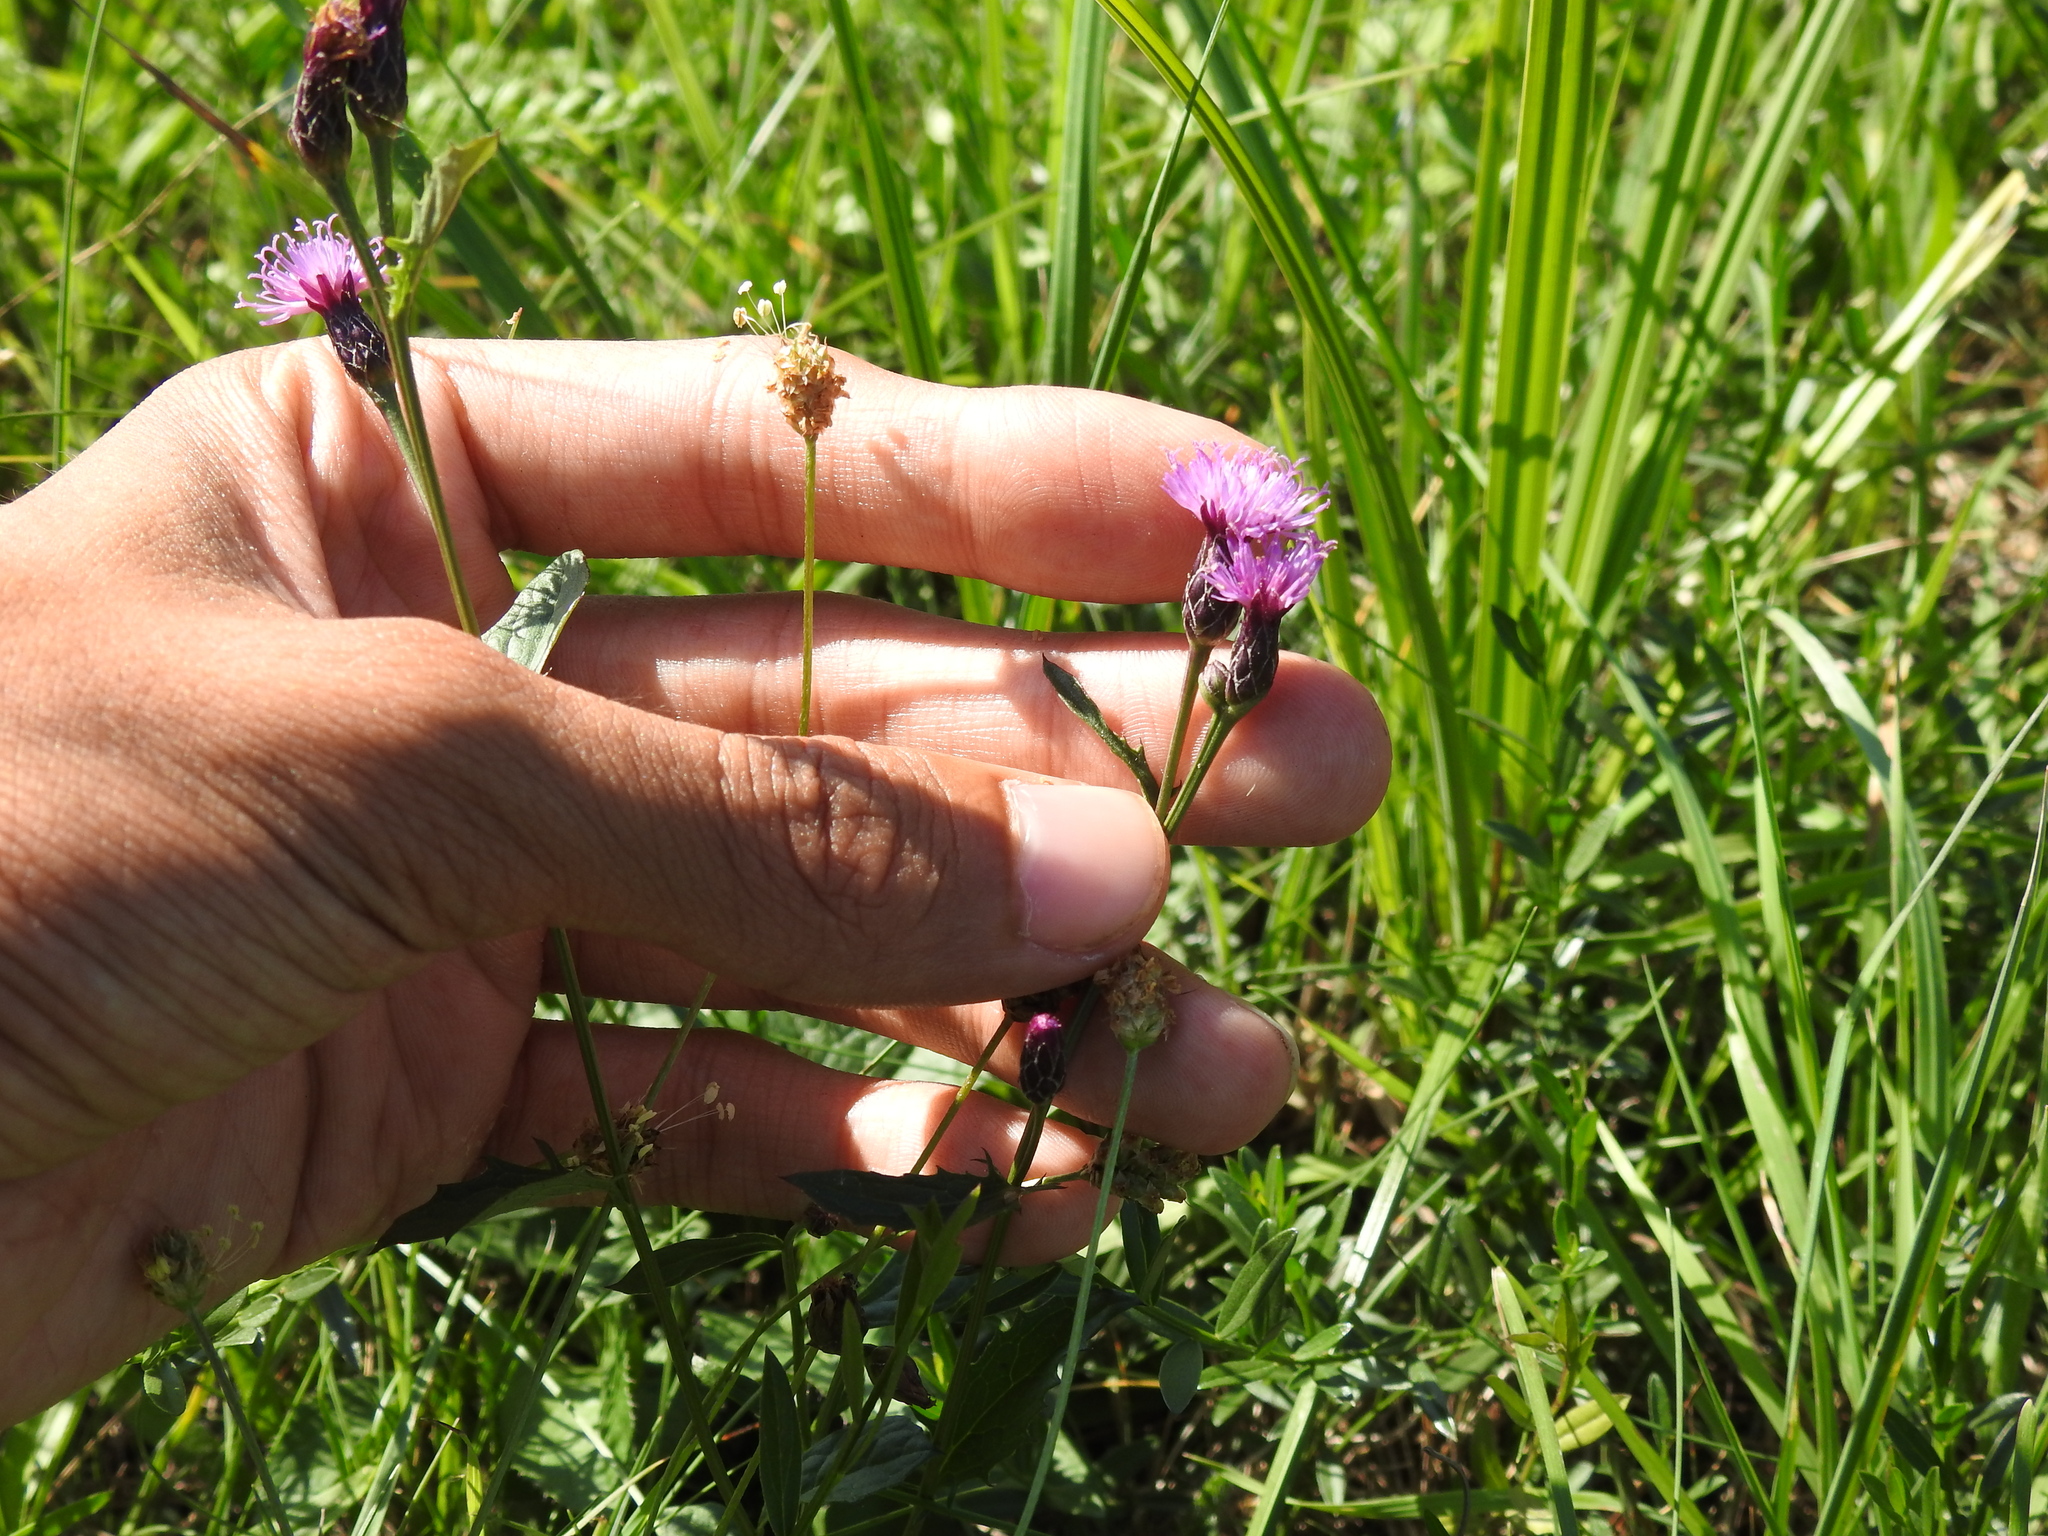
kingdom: Plantae
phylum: Tracheophyta
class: Magnoliopsida
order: Asterales
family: Asteraceae
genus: Serratula
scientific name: Serratula tinctoria
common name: Saw-wort
